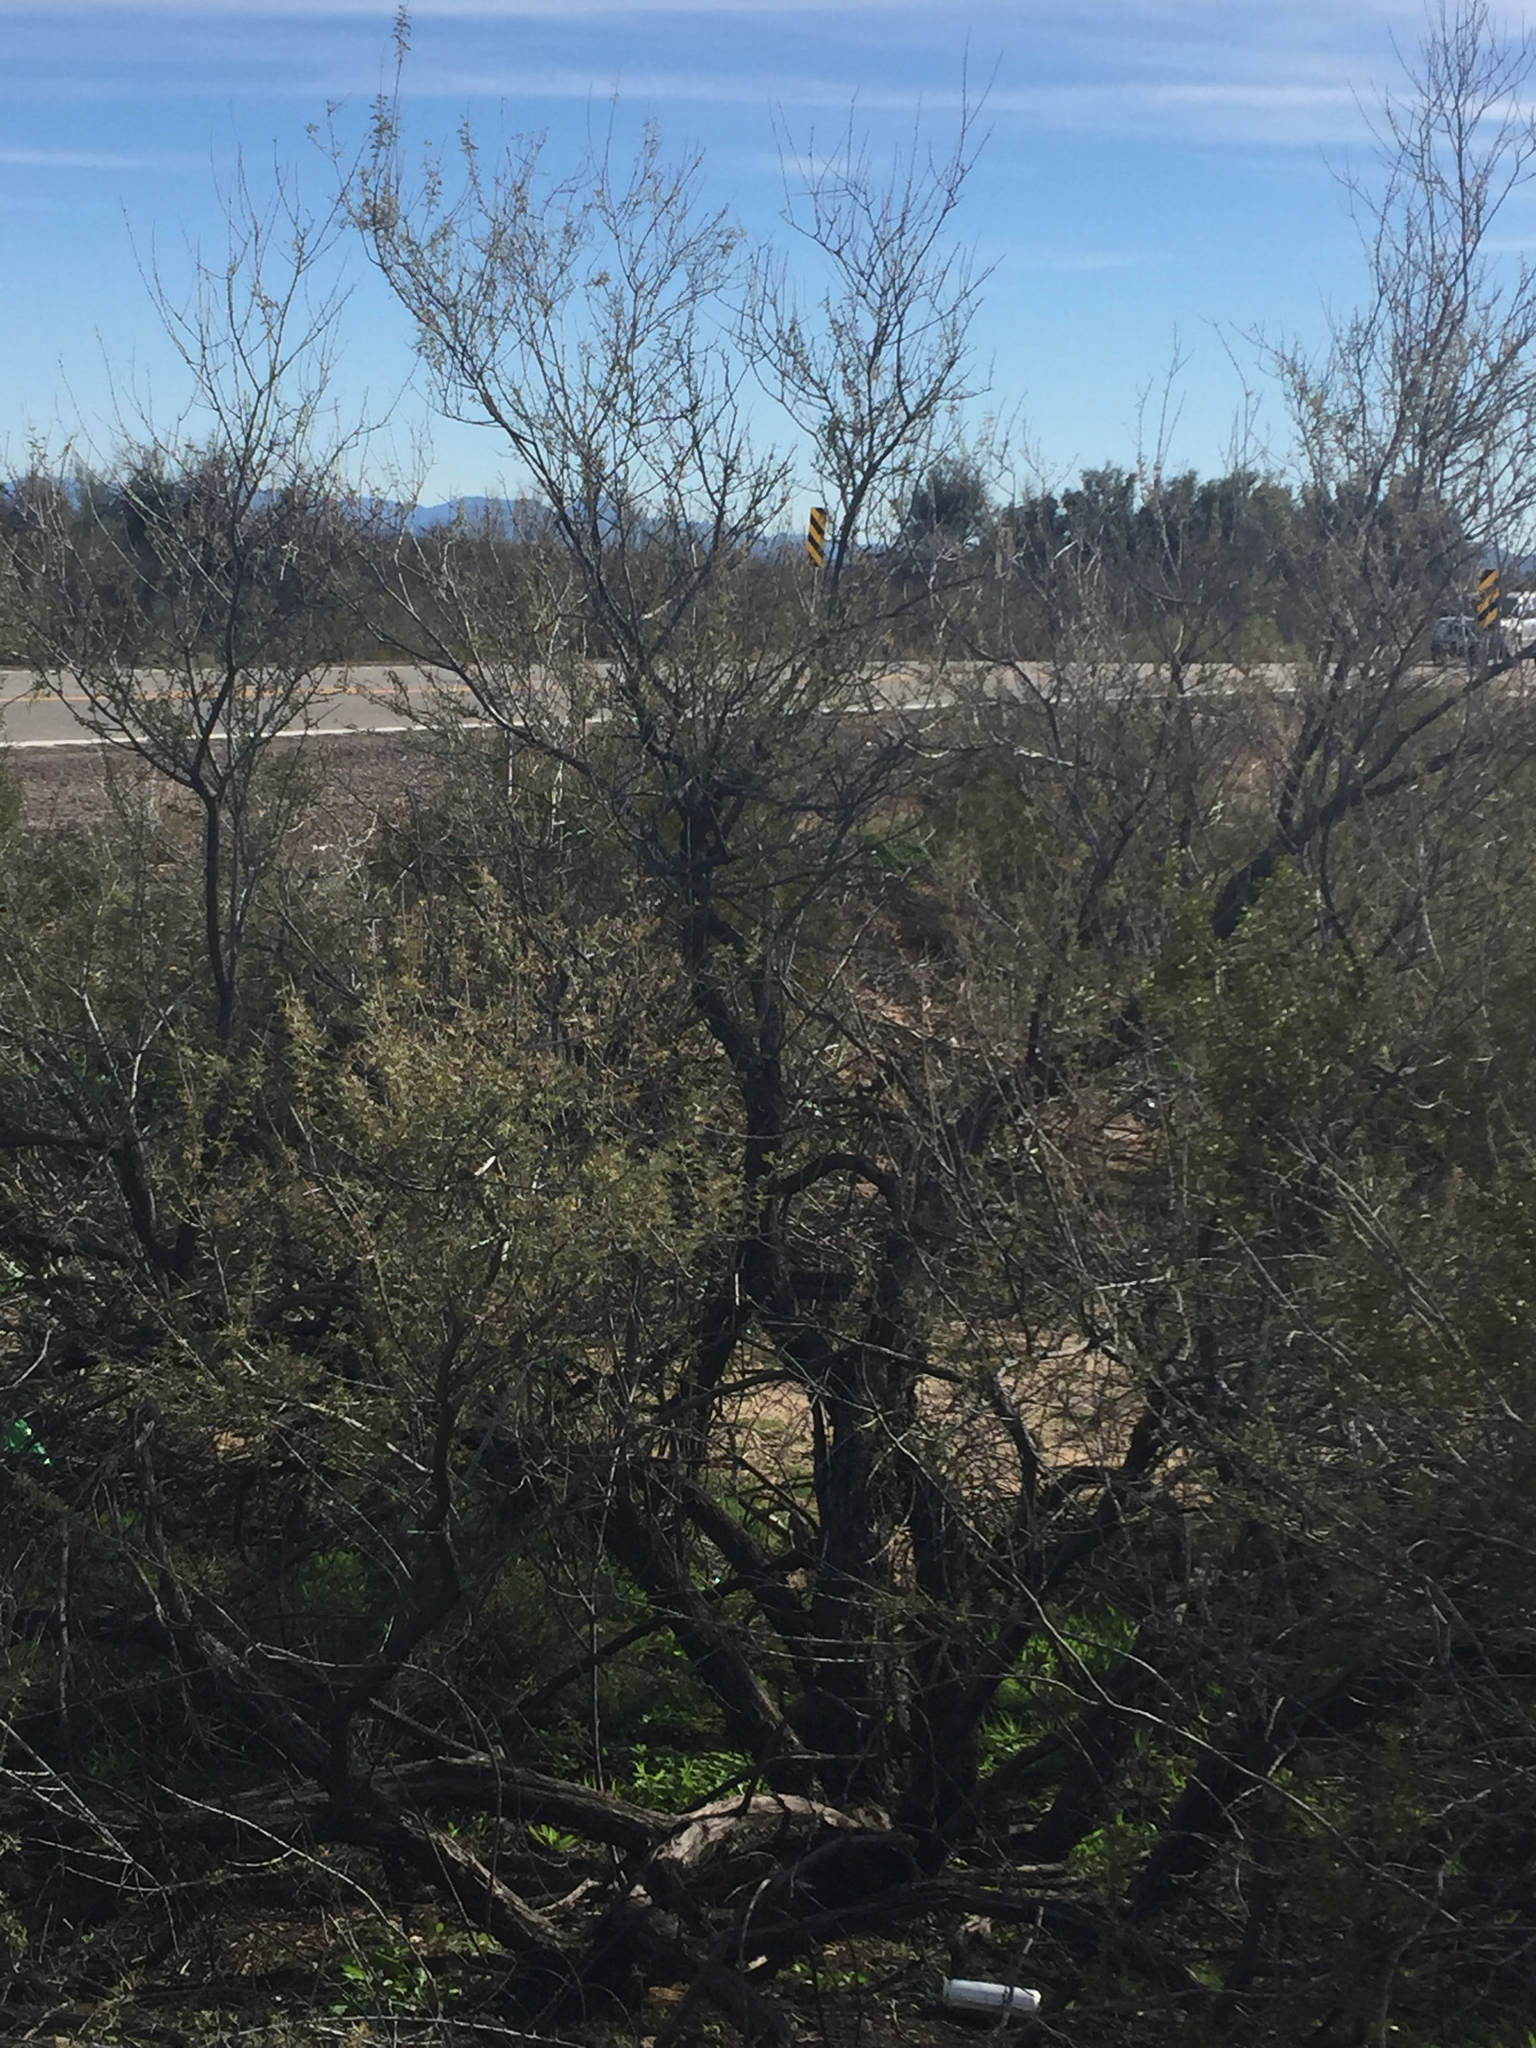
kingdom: Plantae
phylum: Tracheophyta
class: Magnoliopsida
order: Fabales
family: Fabaceae
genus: Senegalia
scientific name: Senegalia greggii
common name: Texas-mimosa
